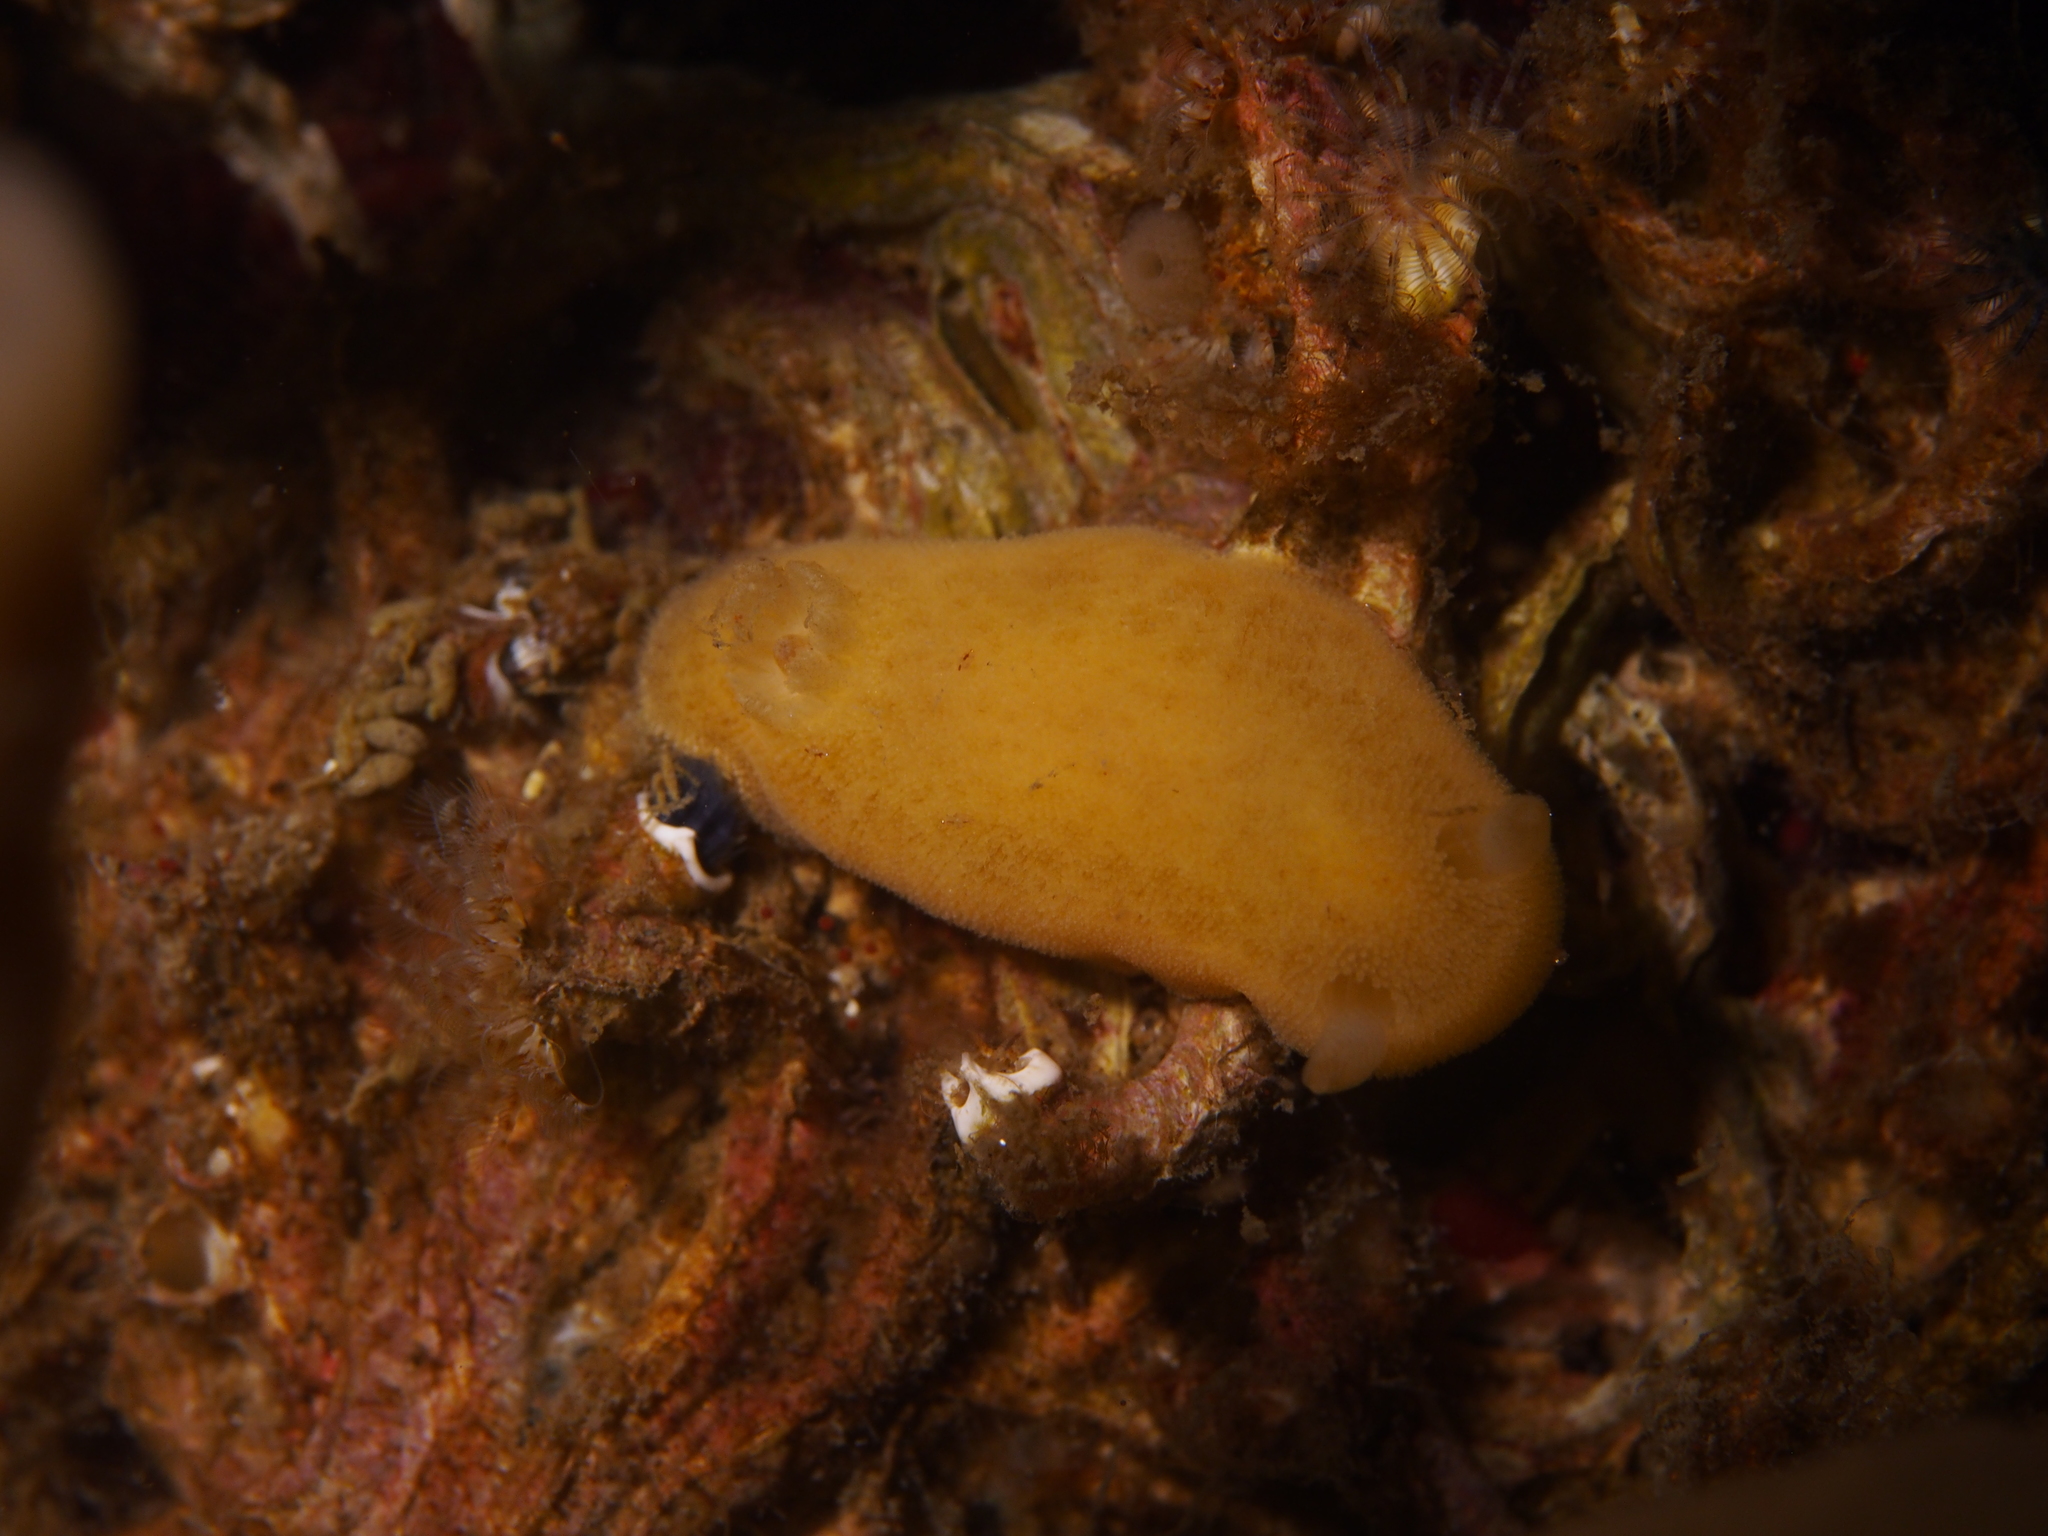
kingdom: Animalia
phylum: Mollusca
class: Gastropoda
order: Nudibranchia
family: Discodorididae
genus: Jorunna
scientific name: Jorunna tomentosa
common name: Grey sea slug
